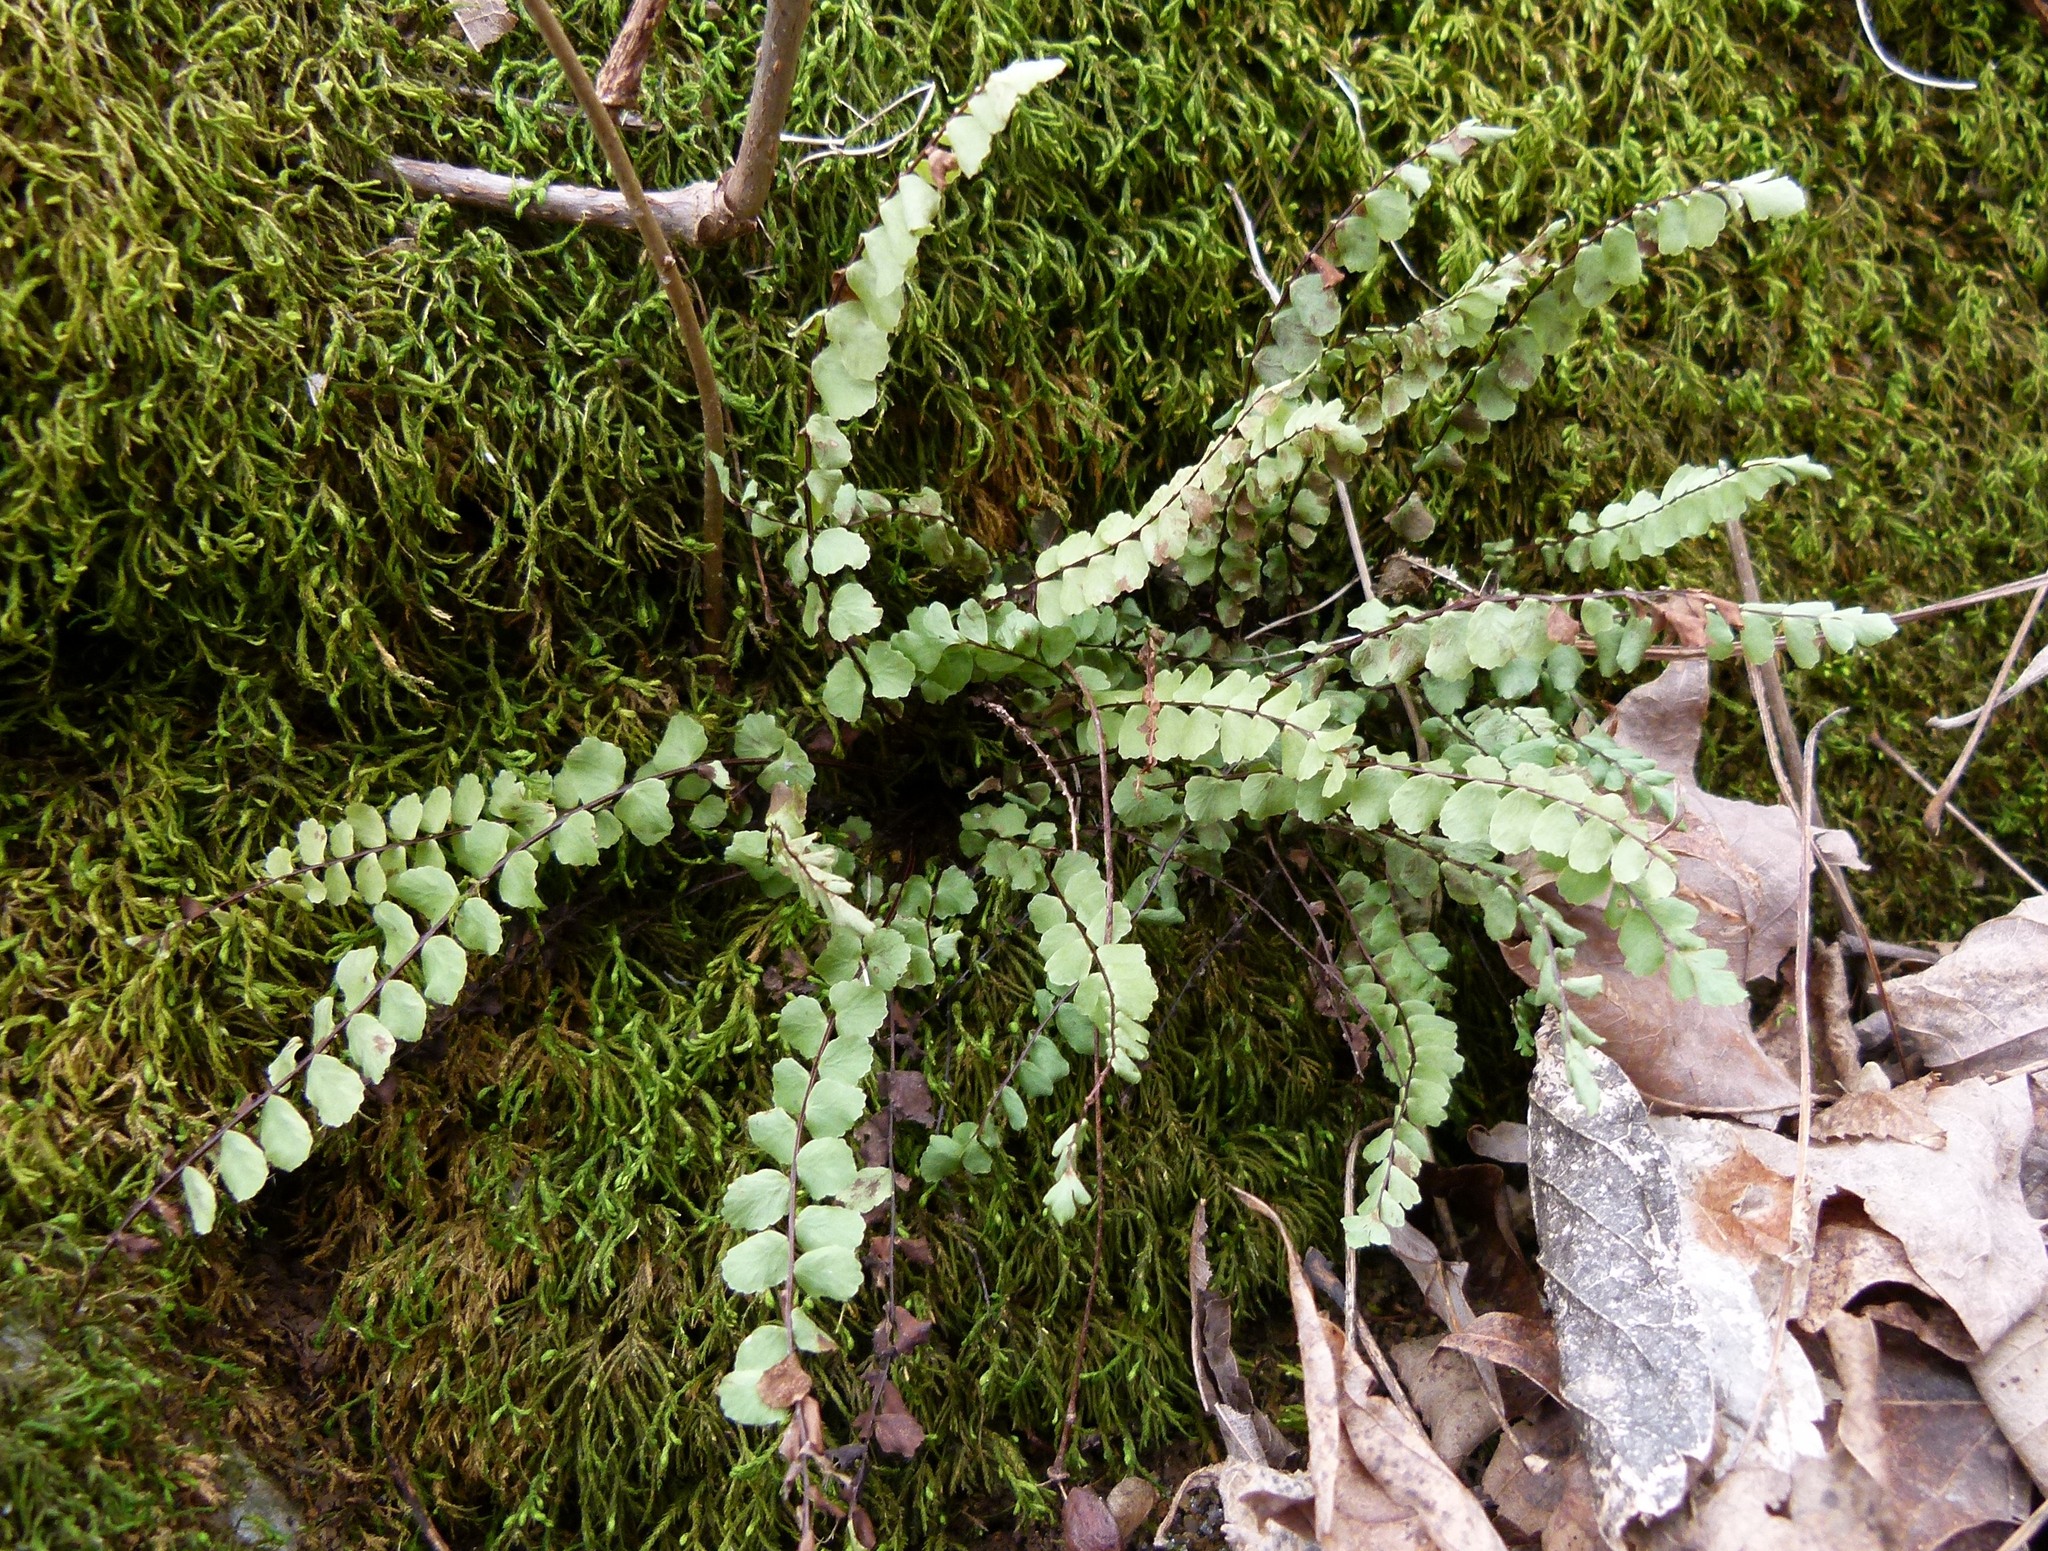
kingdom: Plantae
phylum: Tracheophyta
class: Polypodiopsida
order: Polypodiales
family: Aspleniaceae
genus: Asplenium
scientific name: Asplenium trichomanes
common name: Maidenhair spleenwort
